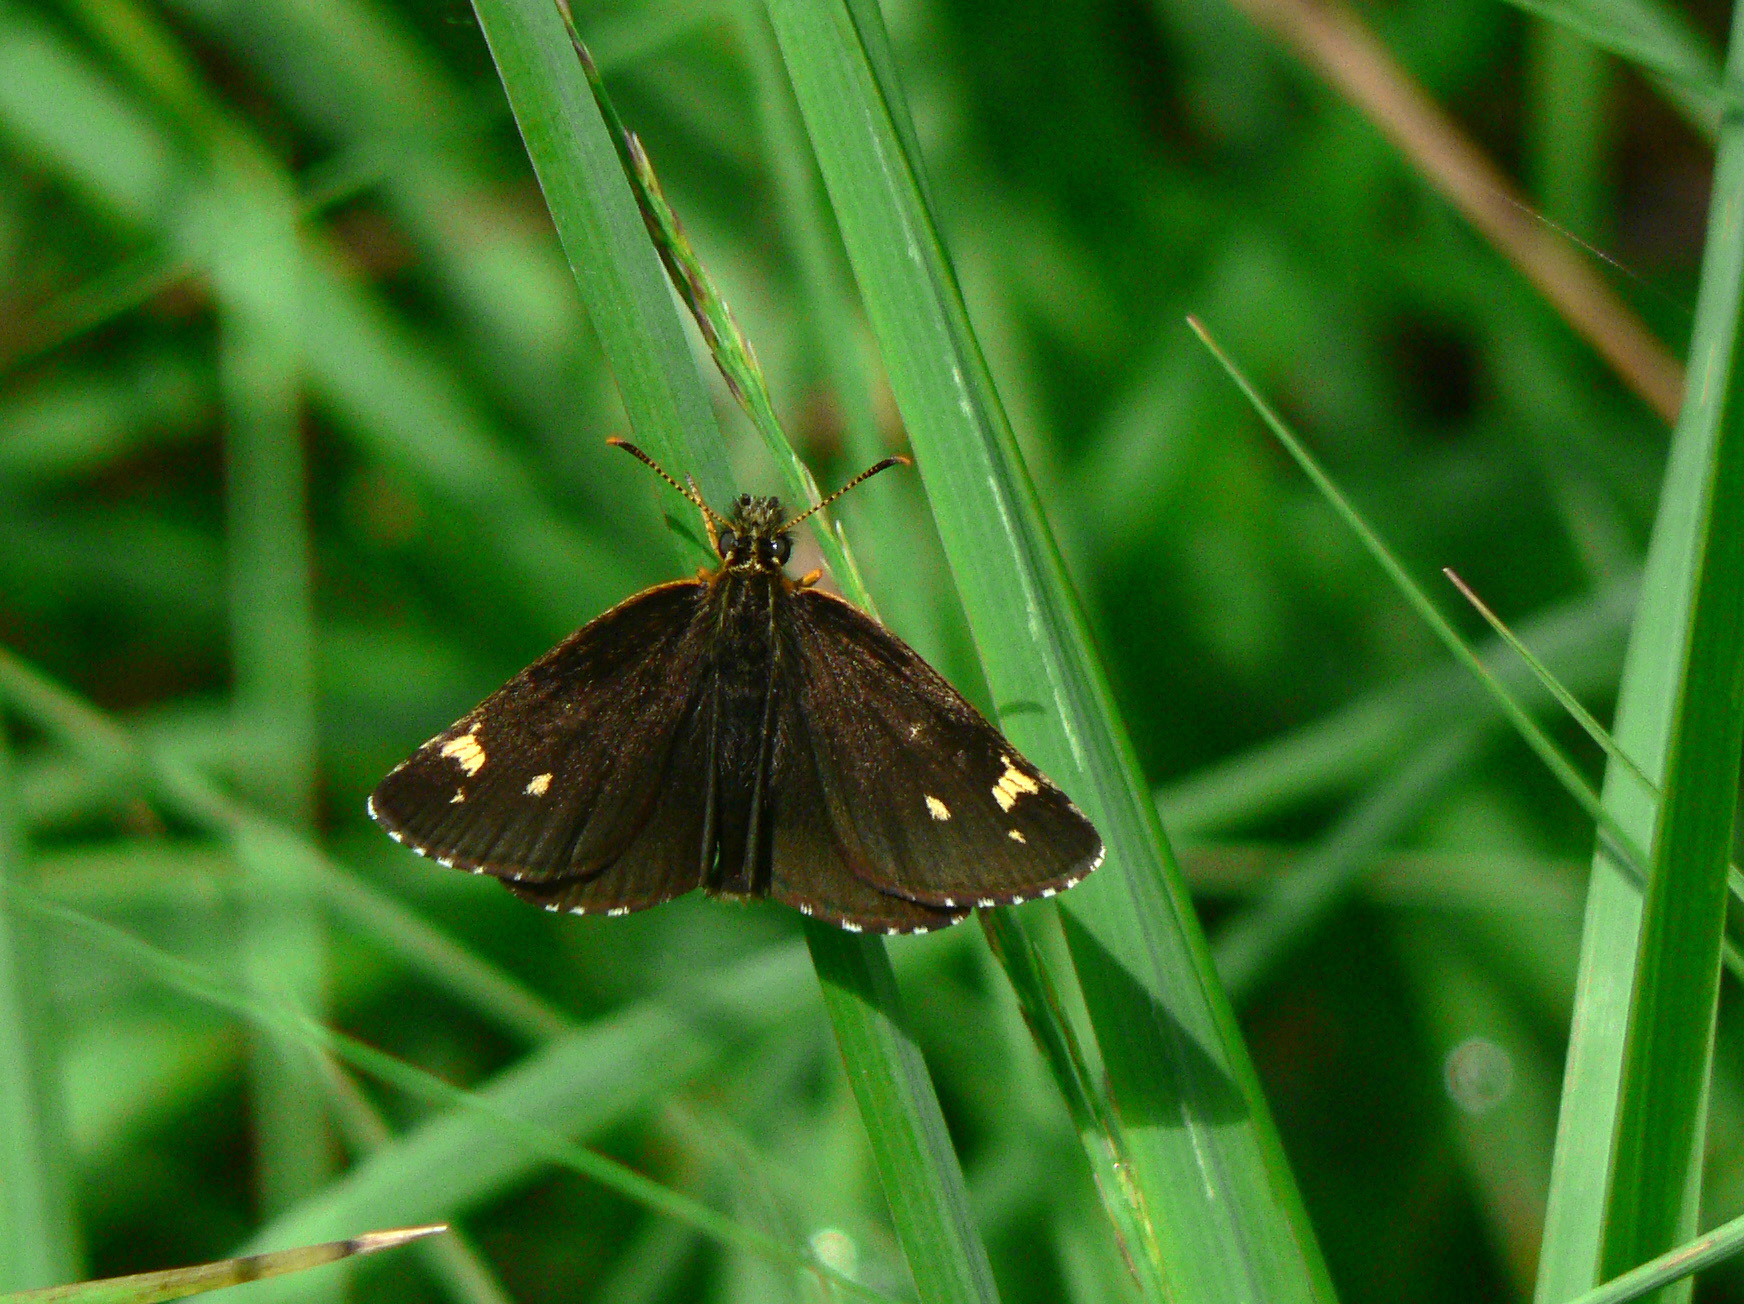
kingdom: Animalia
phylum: Arthropoda
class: Insecta
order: Lepidoptera
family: Hesperiidae
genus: Heteropterus
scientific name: Heteropterus morpheus
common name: Large chequered skipper
